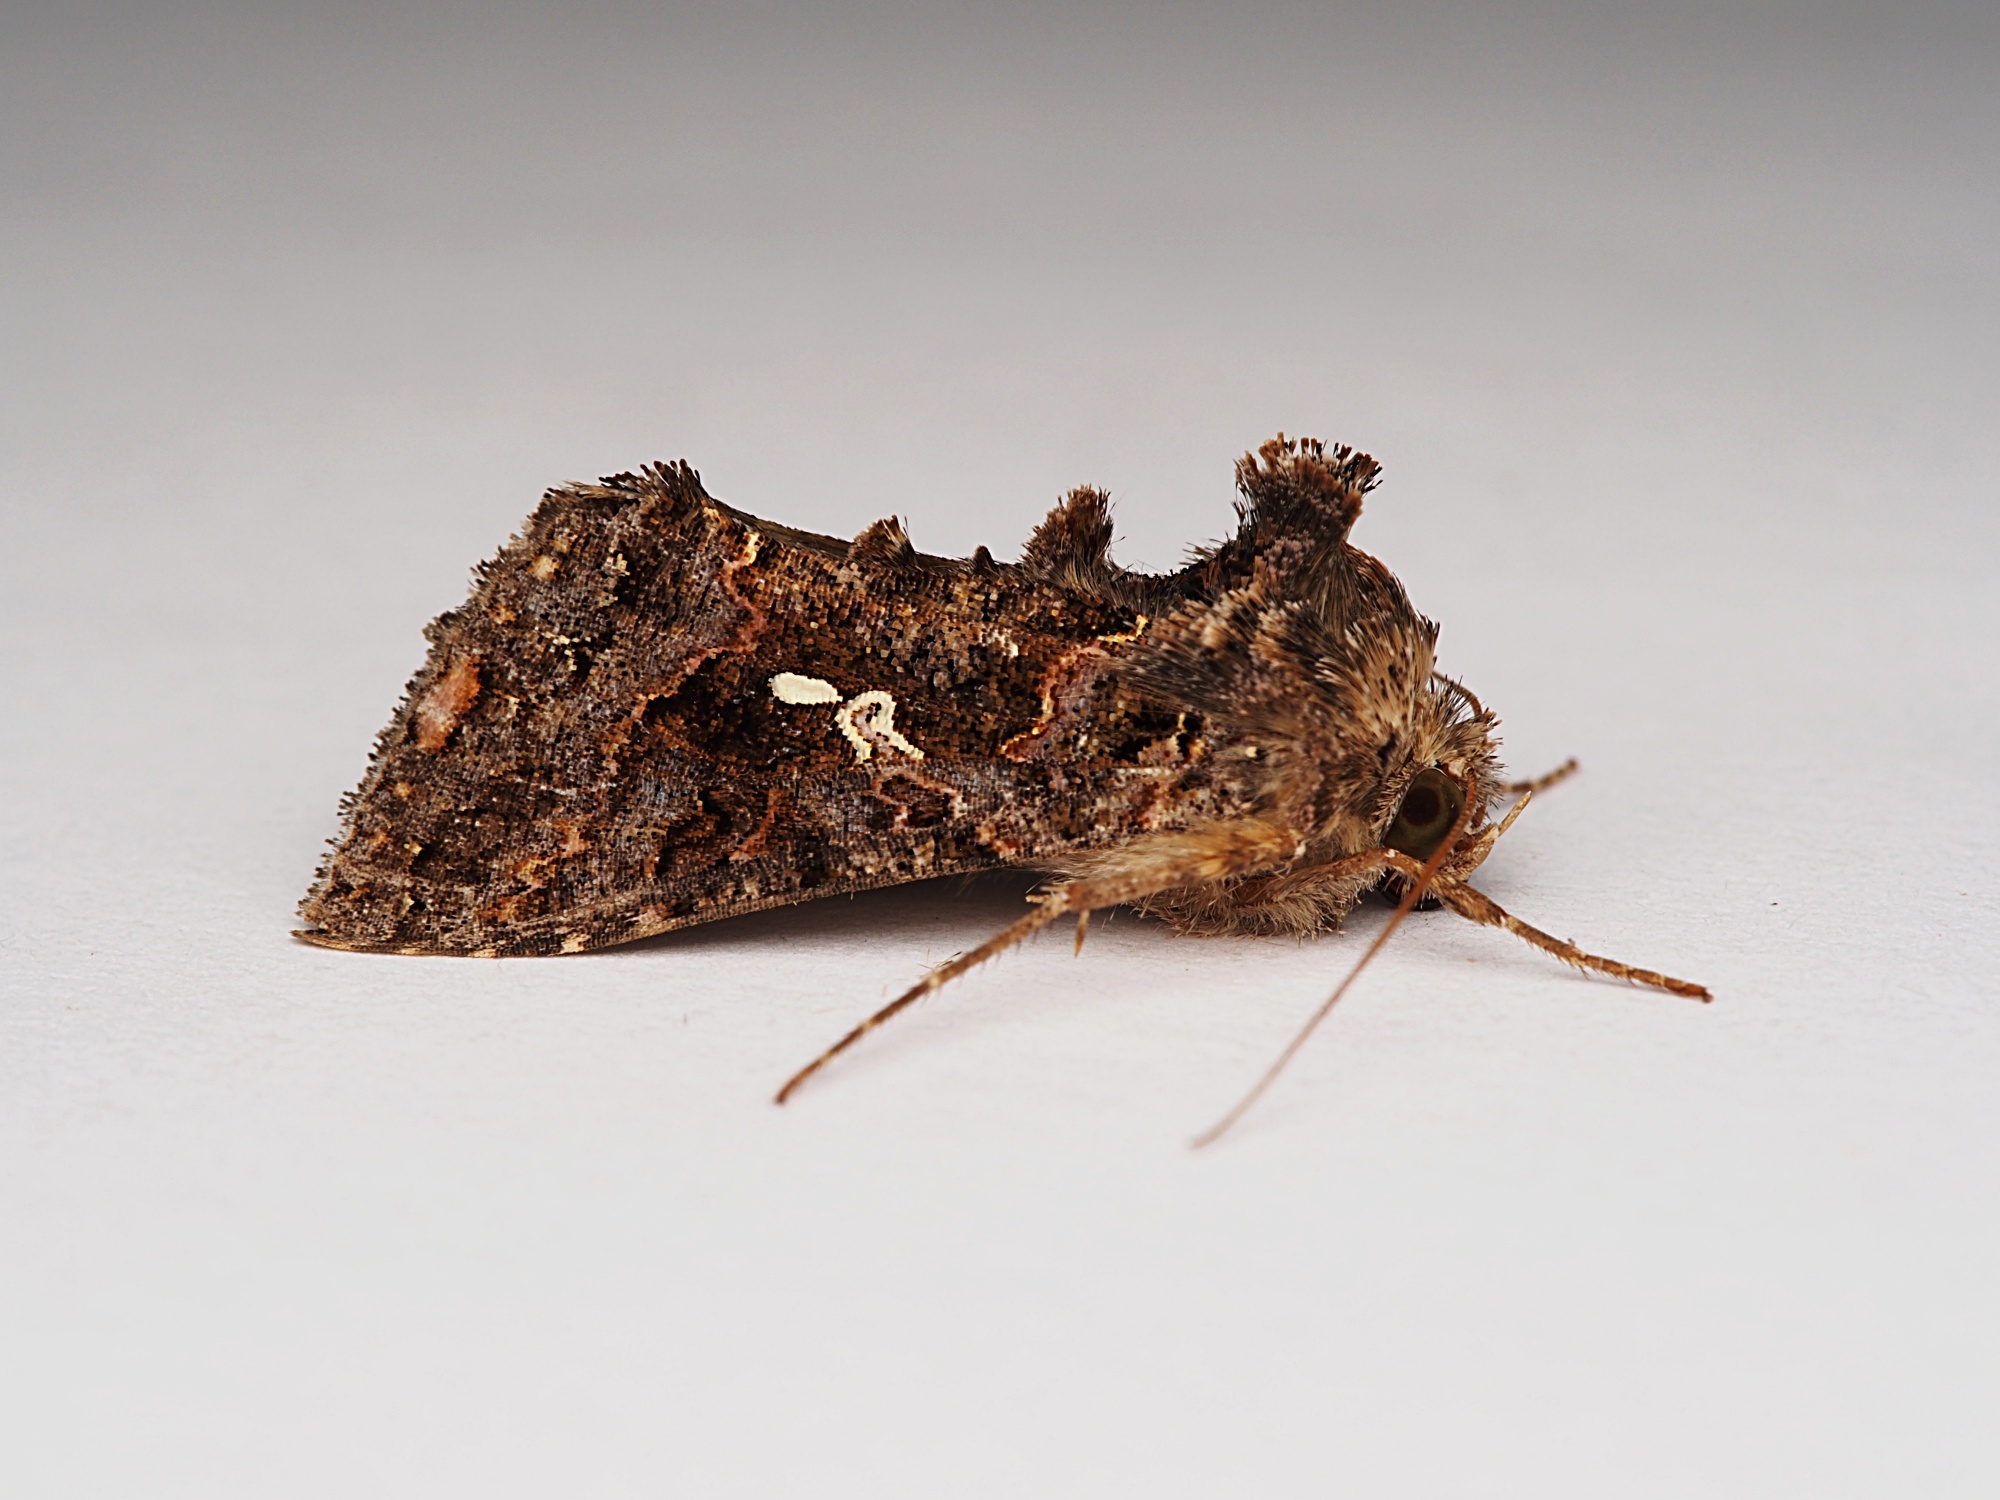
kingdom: Animalia
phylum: Arthropoda
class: Insecta
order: Lepidoptera
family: Noctuidae
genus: Ctenoplusia
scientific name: Ctenoplusia limbirena
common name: Scar bank gem
